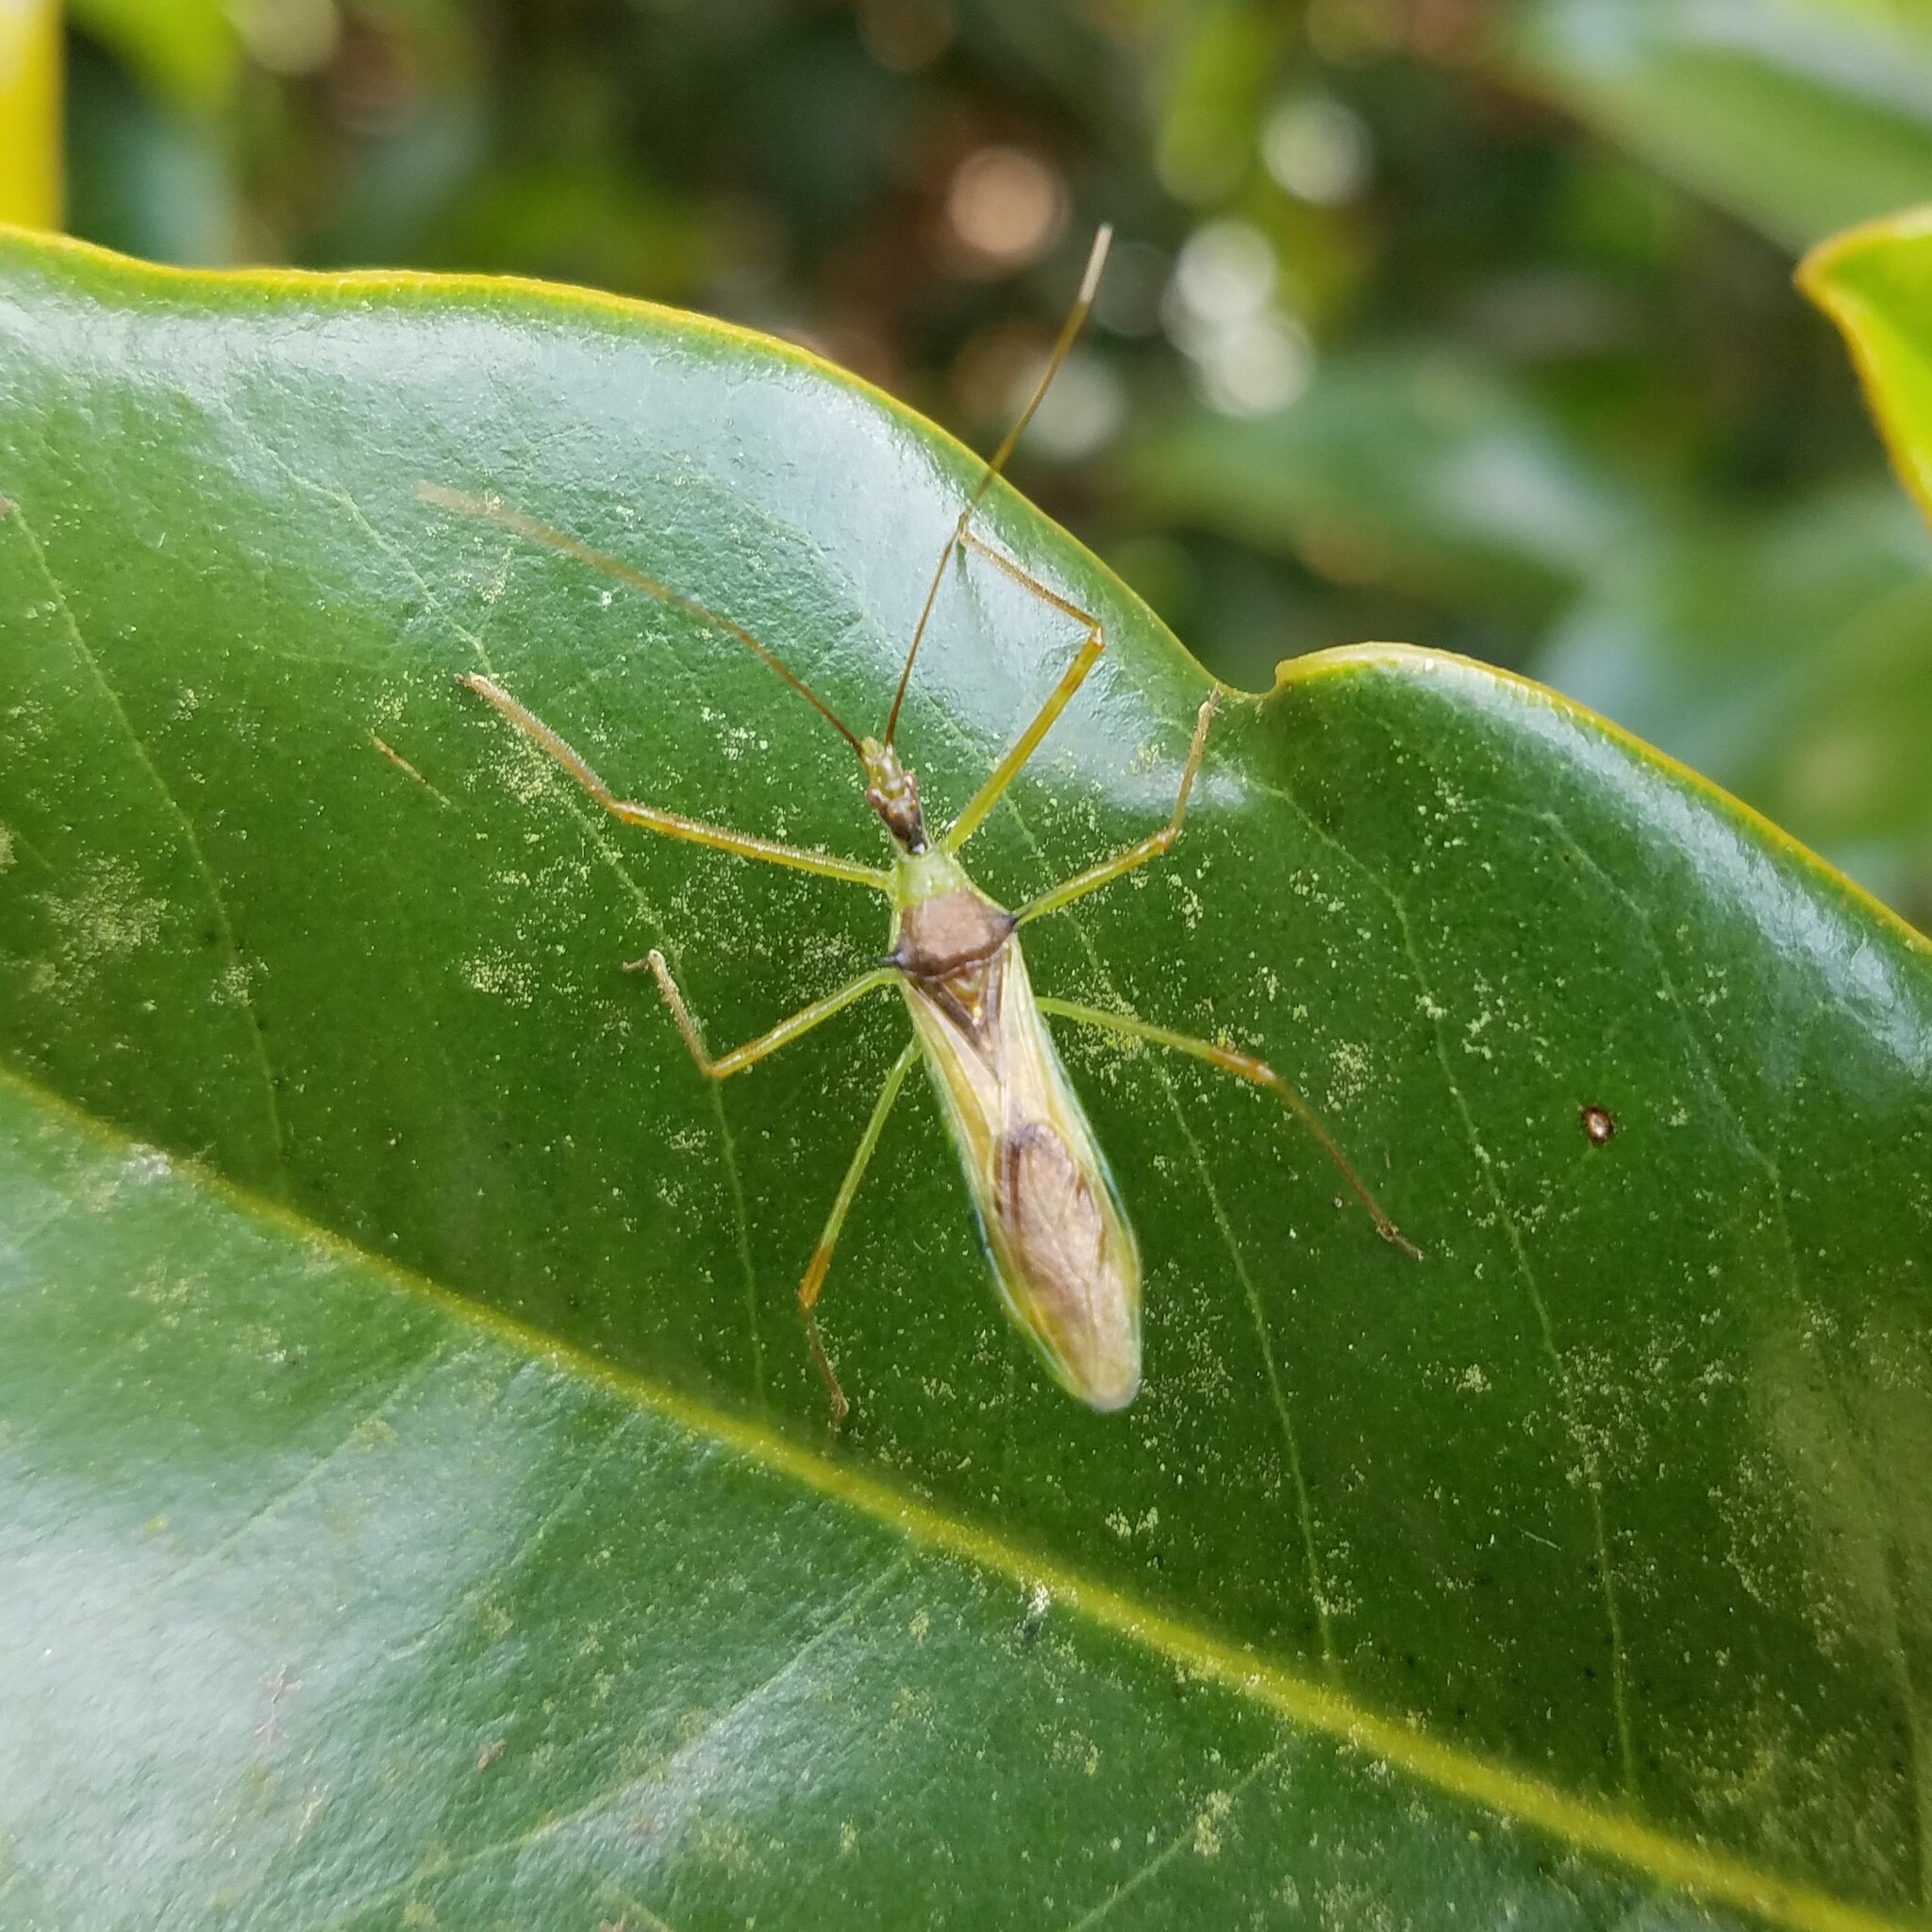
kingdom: Animalia
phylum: Arthropoda
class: Insecta
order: Hemiptera
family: Reduviidae
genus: Zelus
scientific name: Zelus luridus
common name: Pale green assassin bug
